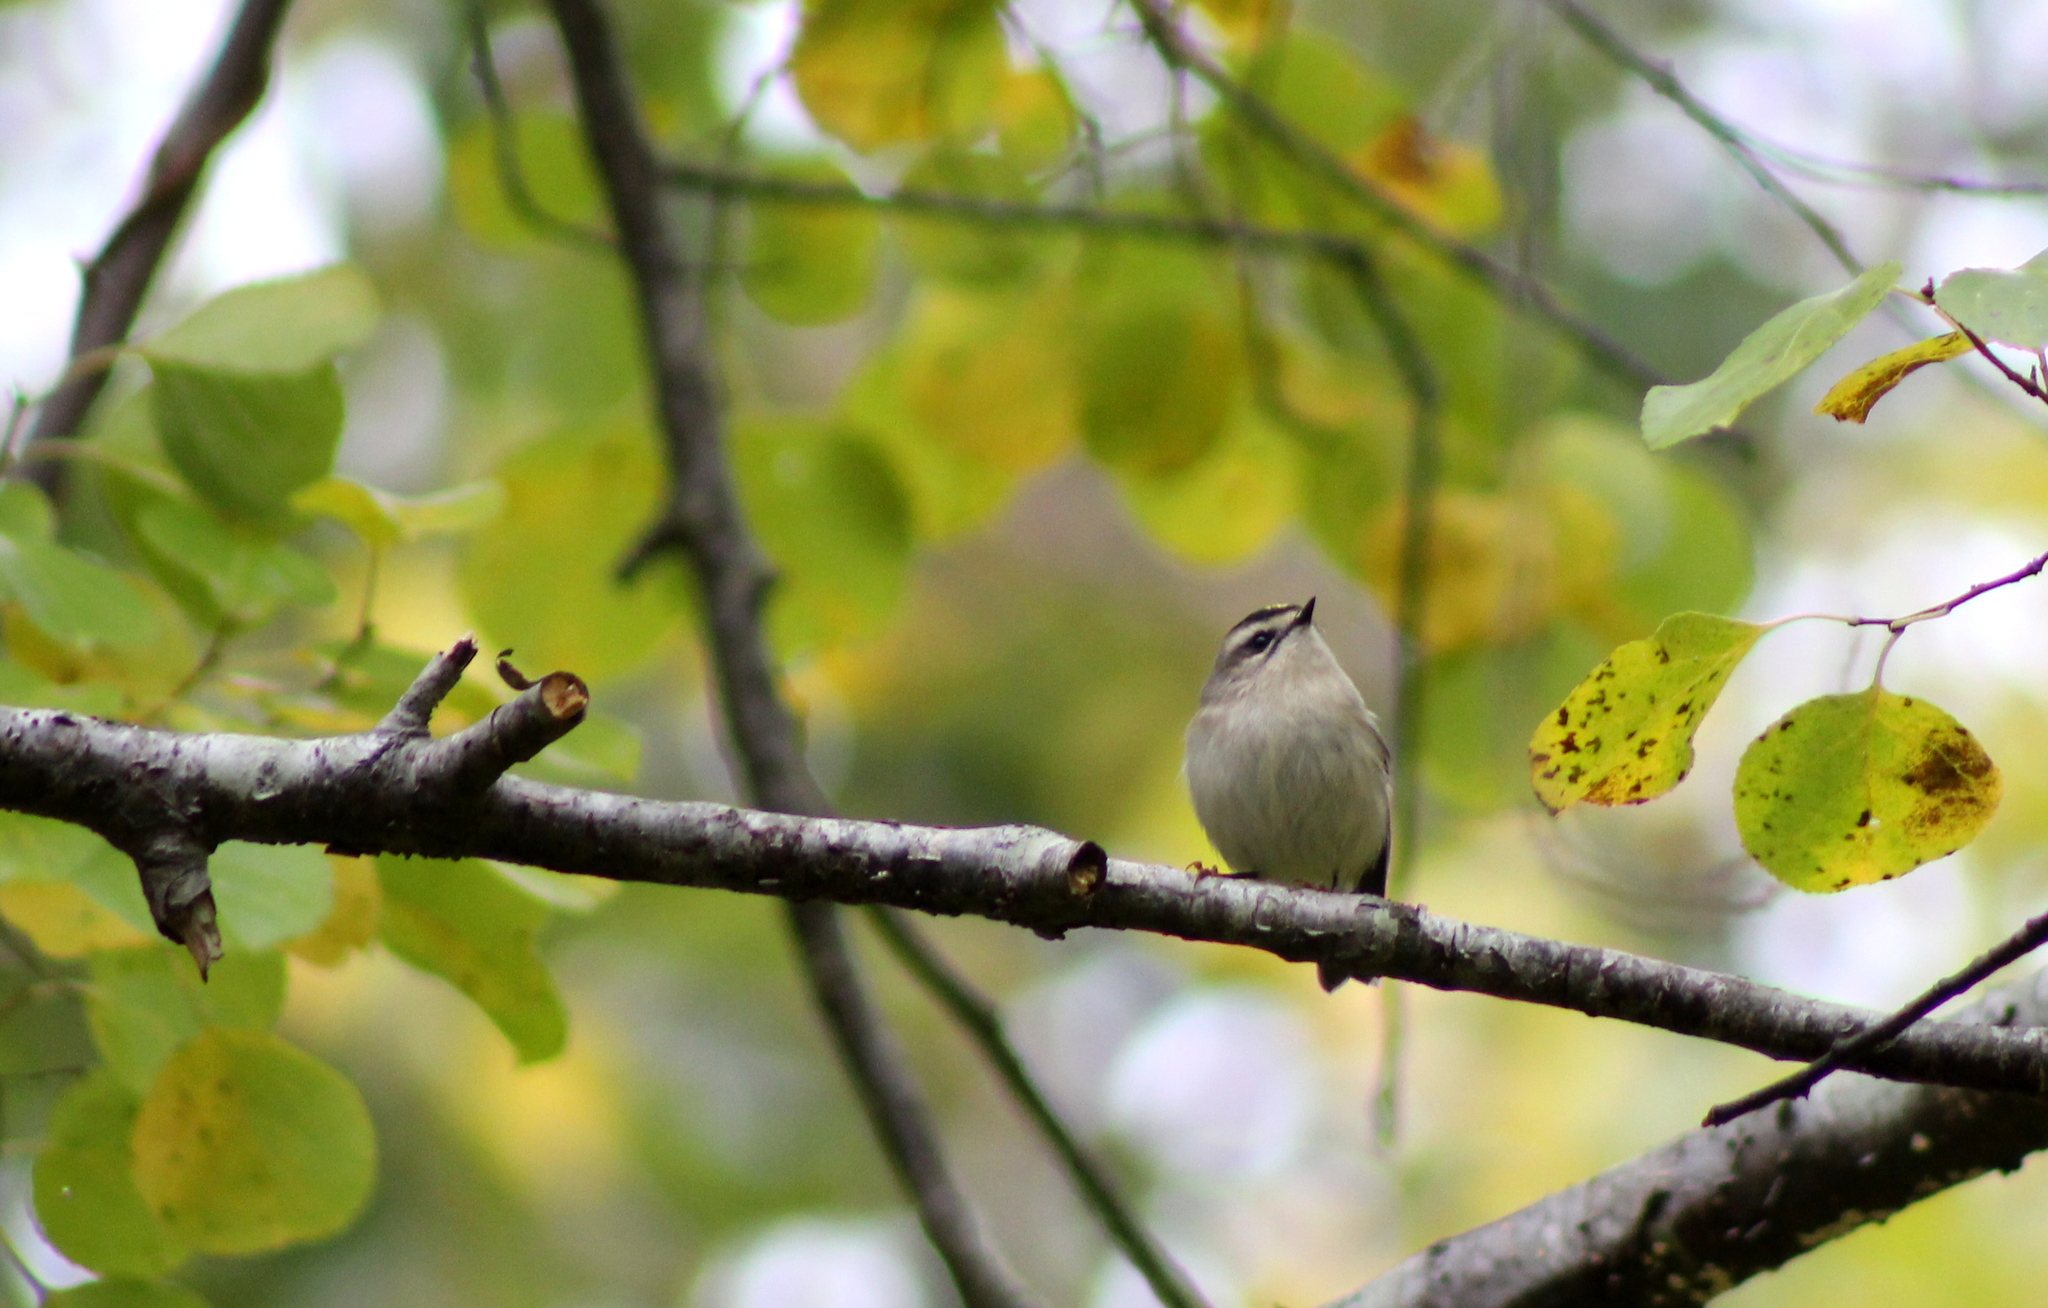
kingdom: Animalia
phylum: Chordata
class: Aves
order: Passeriformes
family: Regulidae
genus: Regulus
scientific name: Regulus satrapa
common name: Golden-crowned kinglet
